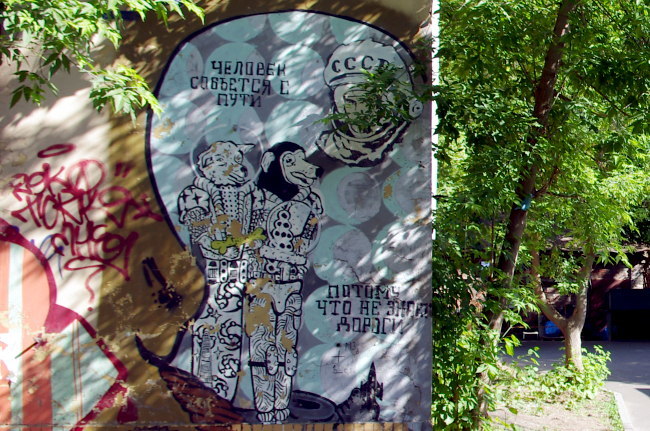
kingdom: Plantae
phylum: Tracheophyta
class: Magnoliopsida
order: Sapindales
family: Sapindaceae
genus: Acer
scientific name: Acer negundo
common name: Ashleaf maple
